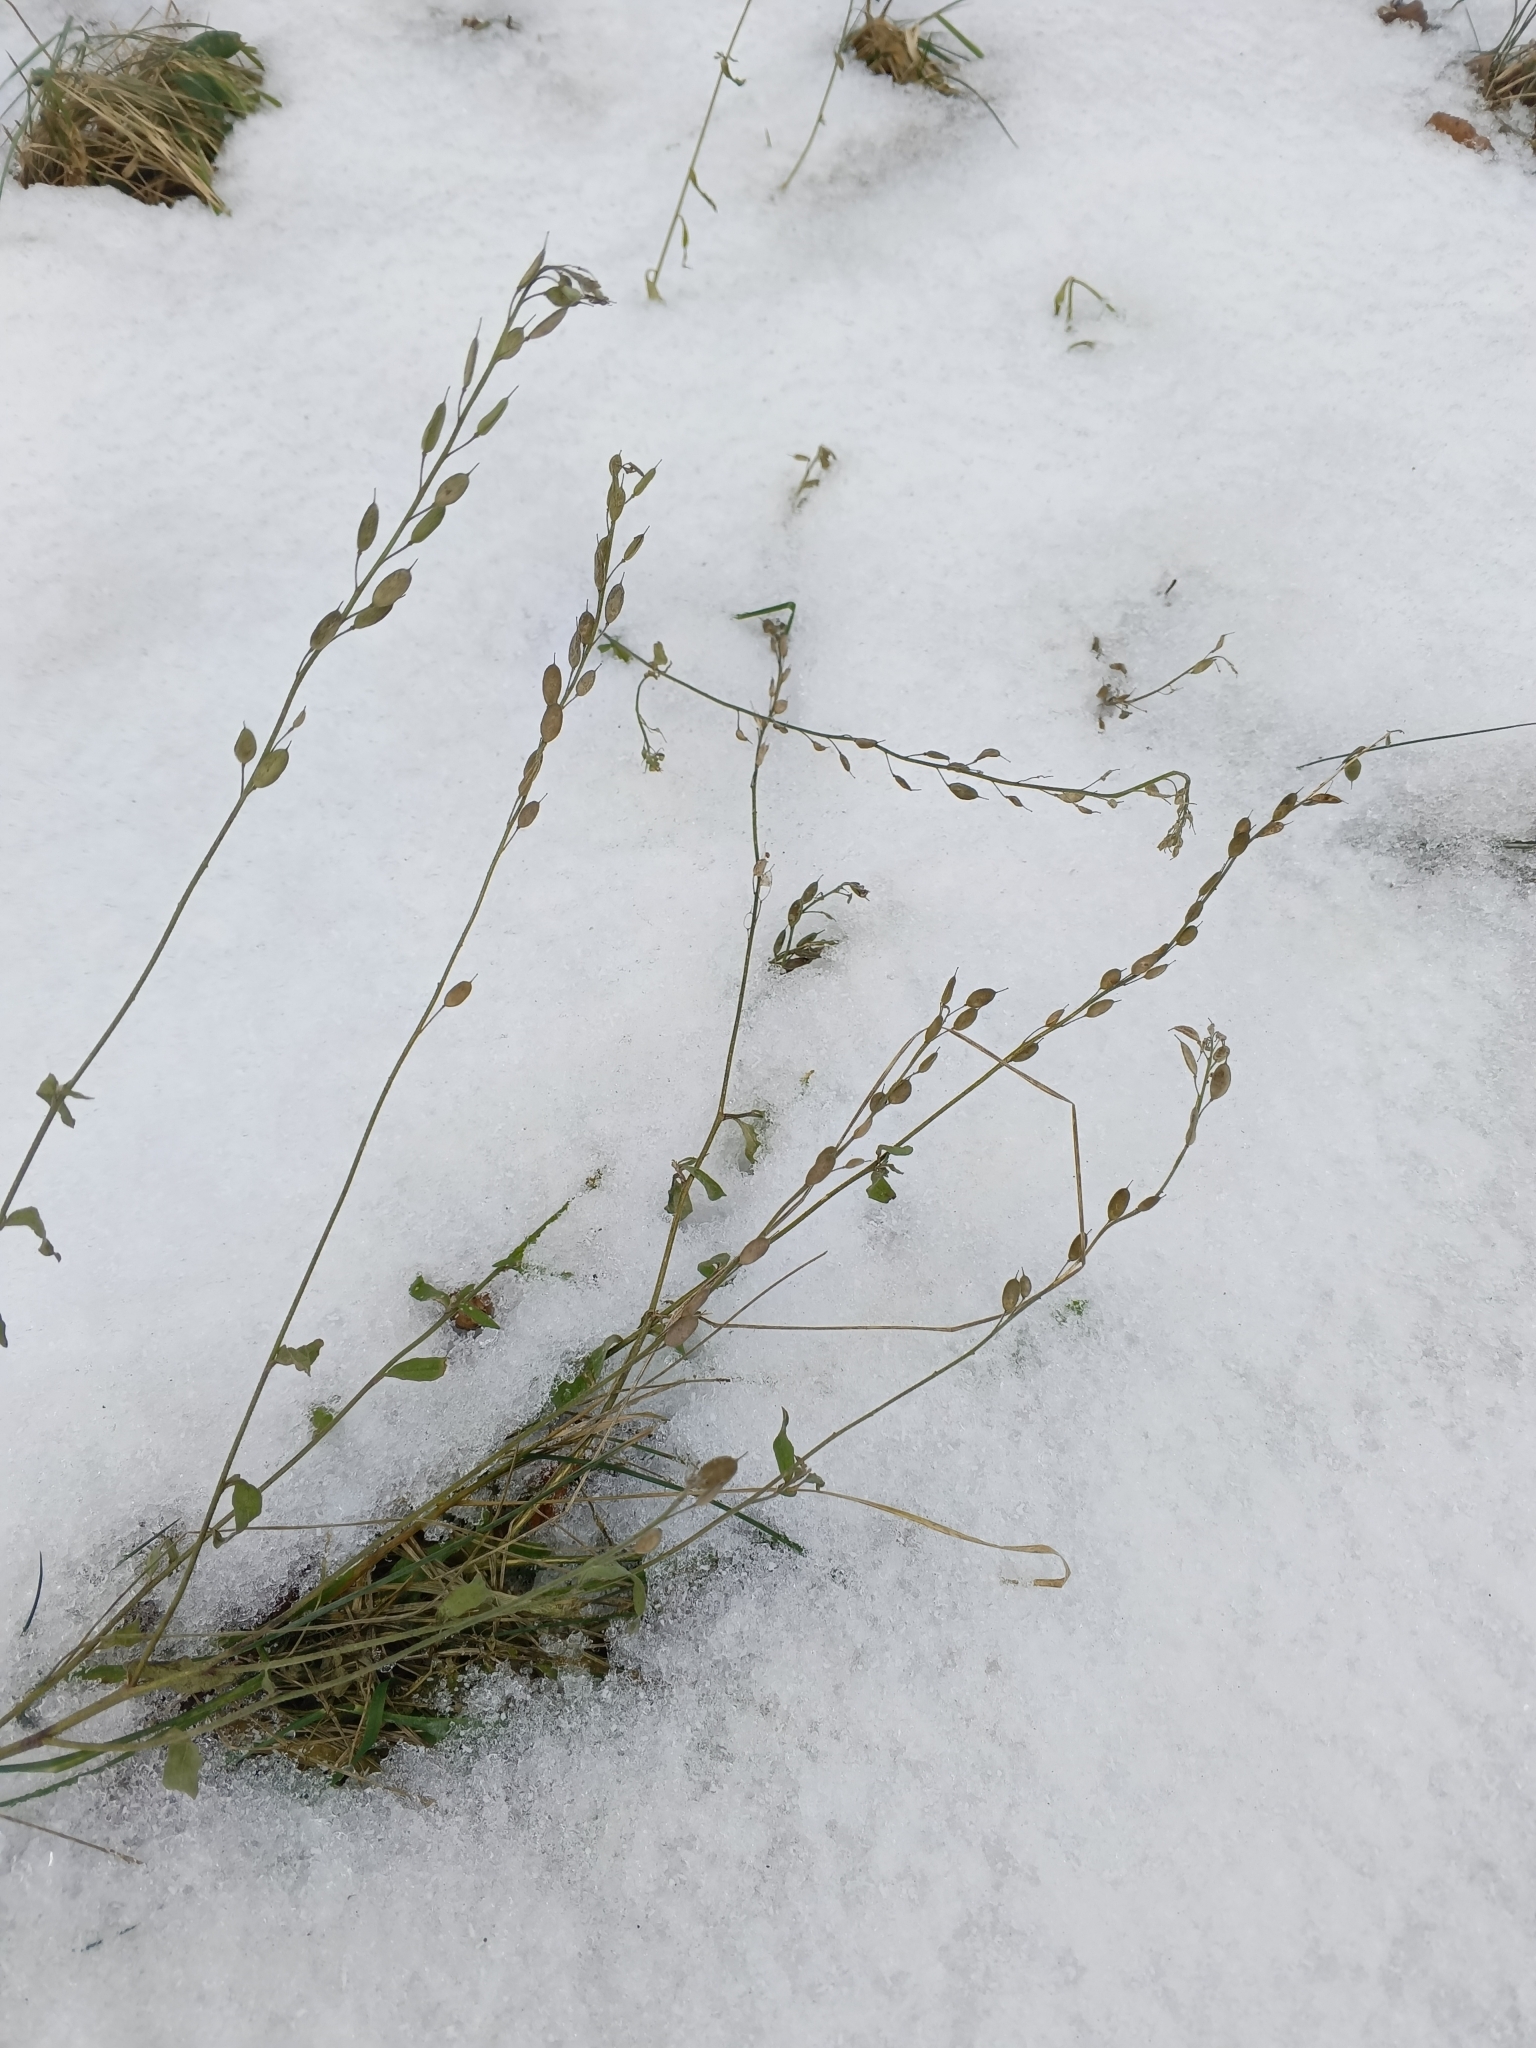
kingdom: Plantae
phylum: Tracheophyta
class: Magnoliopsida
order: Brassicales
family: Brassicaceae
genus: Berteroa
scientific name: Berteroa incana
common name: Hoary alison
